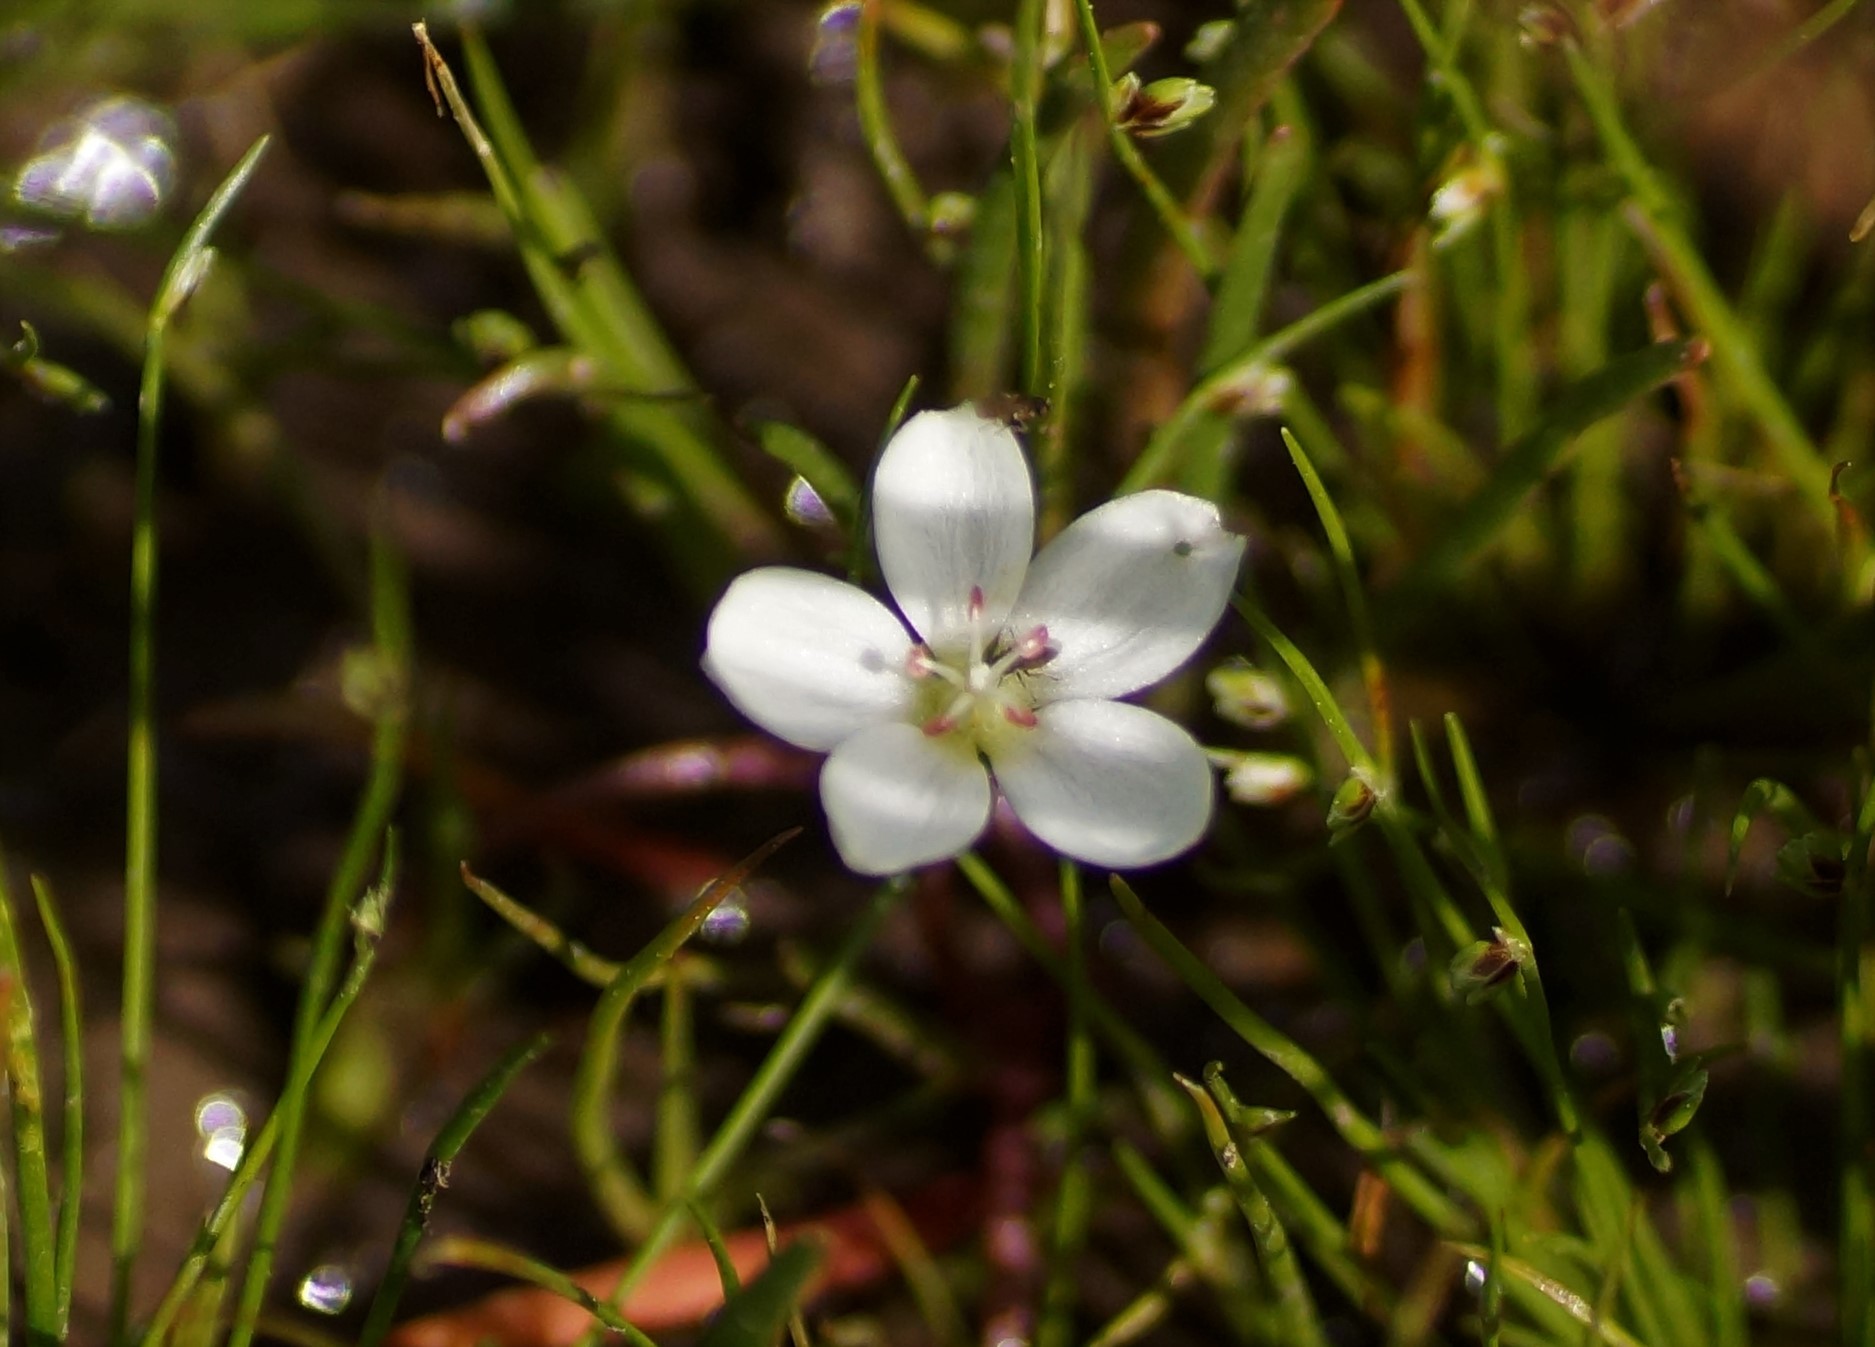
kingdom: Plantae
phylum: Tracheophyta
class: Magnoliopsida
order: Caryophyllales
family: Montiaceae
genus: Montia
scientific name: Montia australasica
